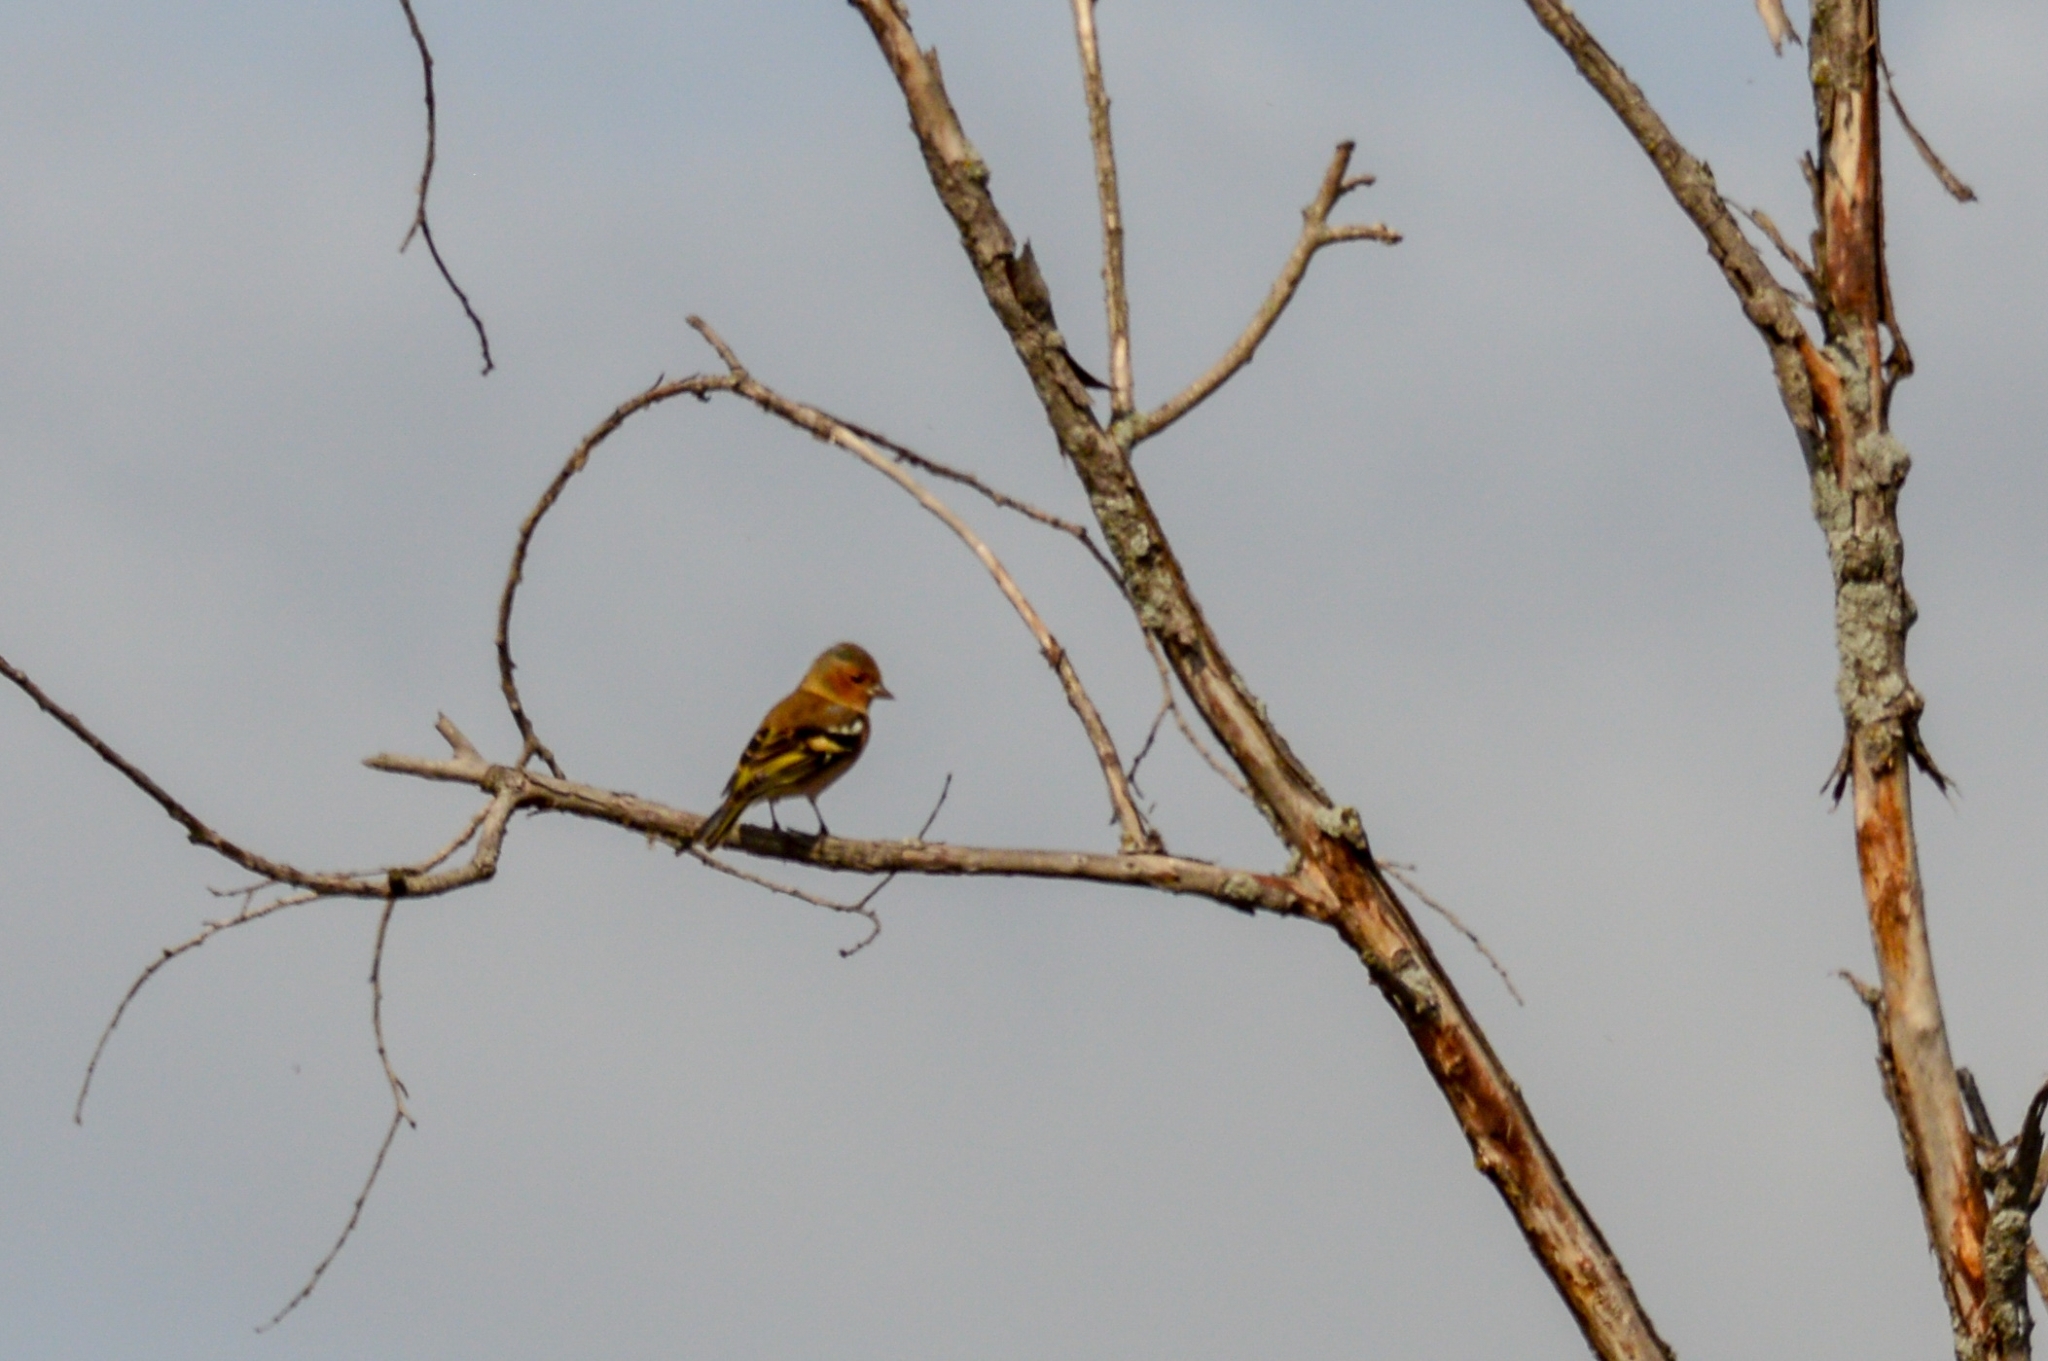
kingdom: Animalia
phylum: Chordata
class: Aves
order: Passeriformes
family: Fringillidae
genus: Fringilla
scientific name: Fringilla coelebs
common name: Common chaffinch
